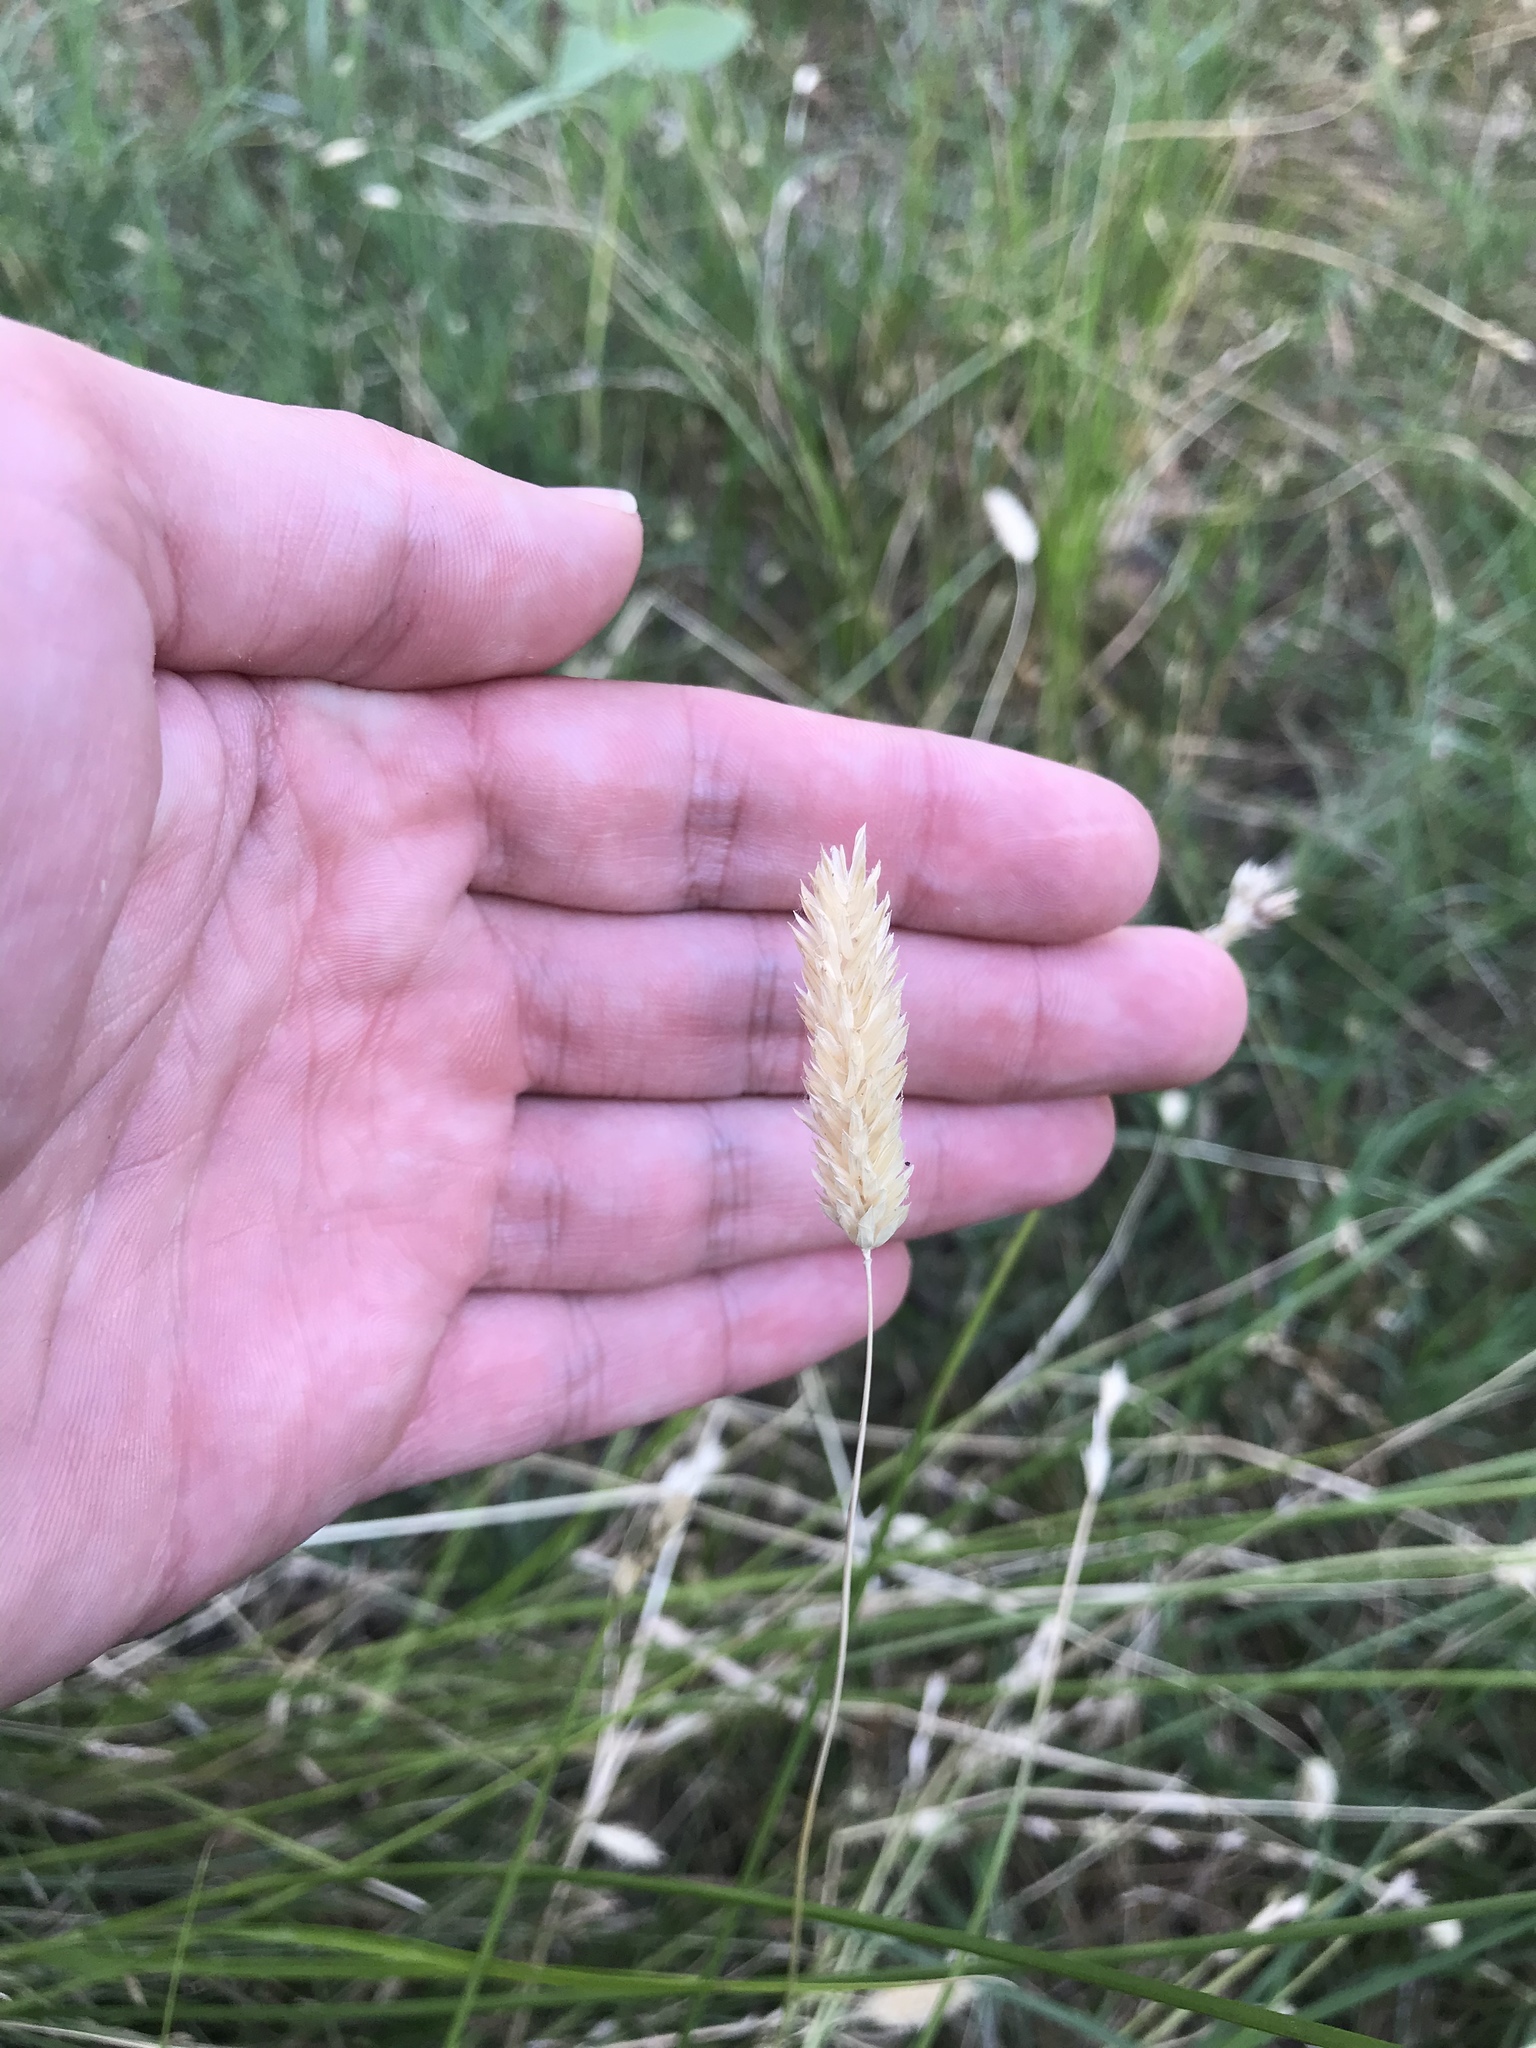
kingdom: Plantae
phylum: Tracheophyta
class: Liliopsida
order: Poales
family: Poaceae
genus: Phalaris
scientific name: Phalaris caroliniana
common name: May grass
